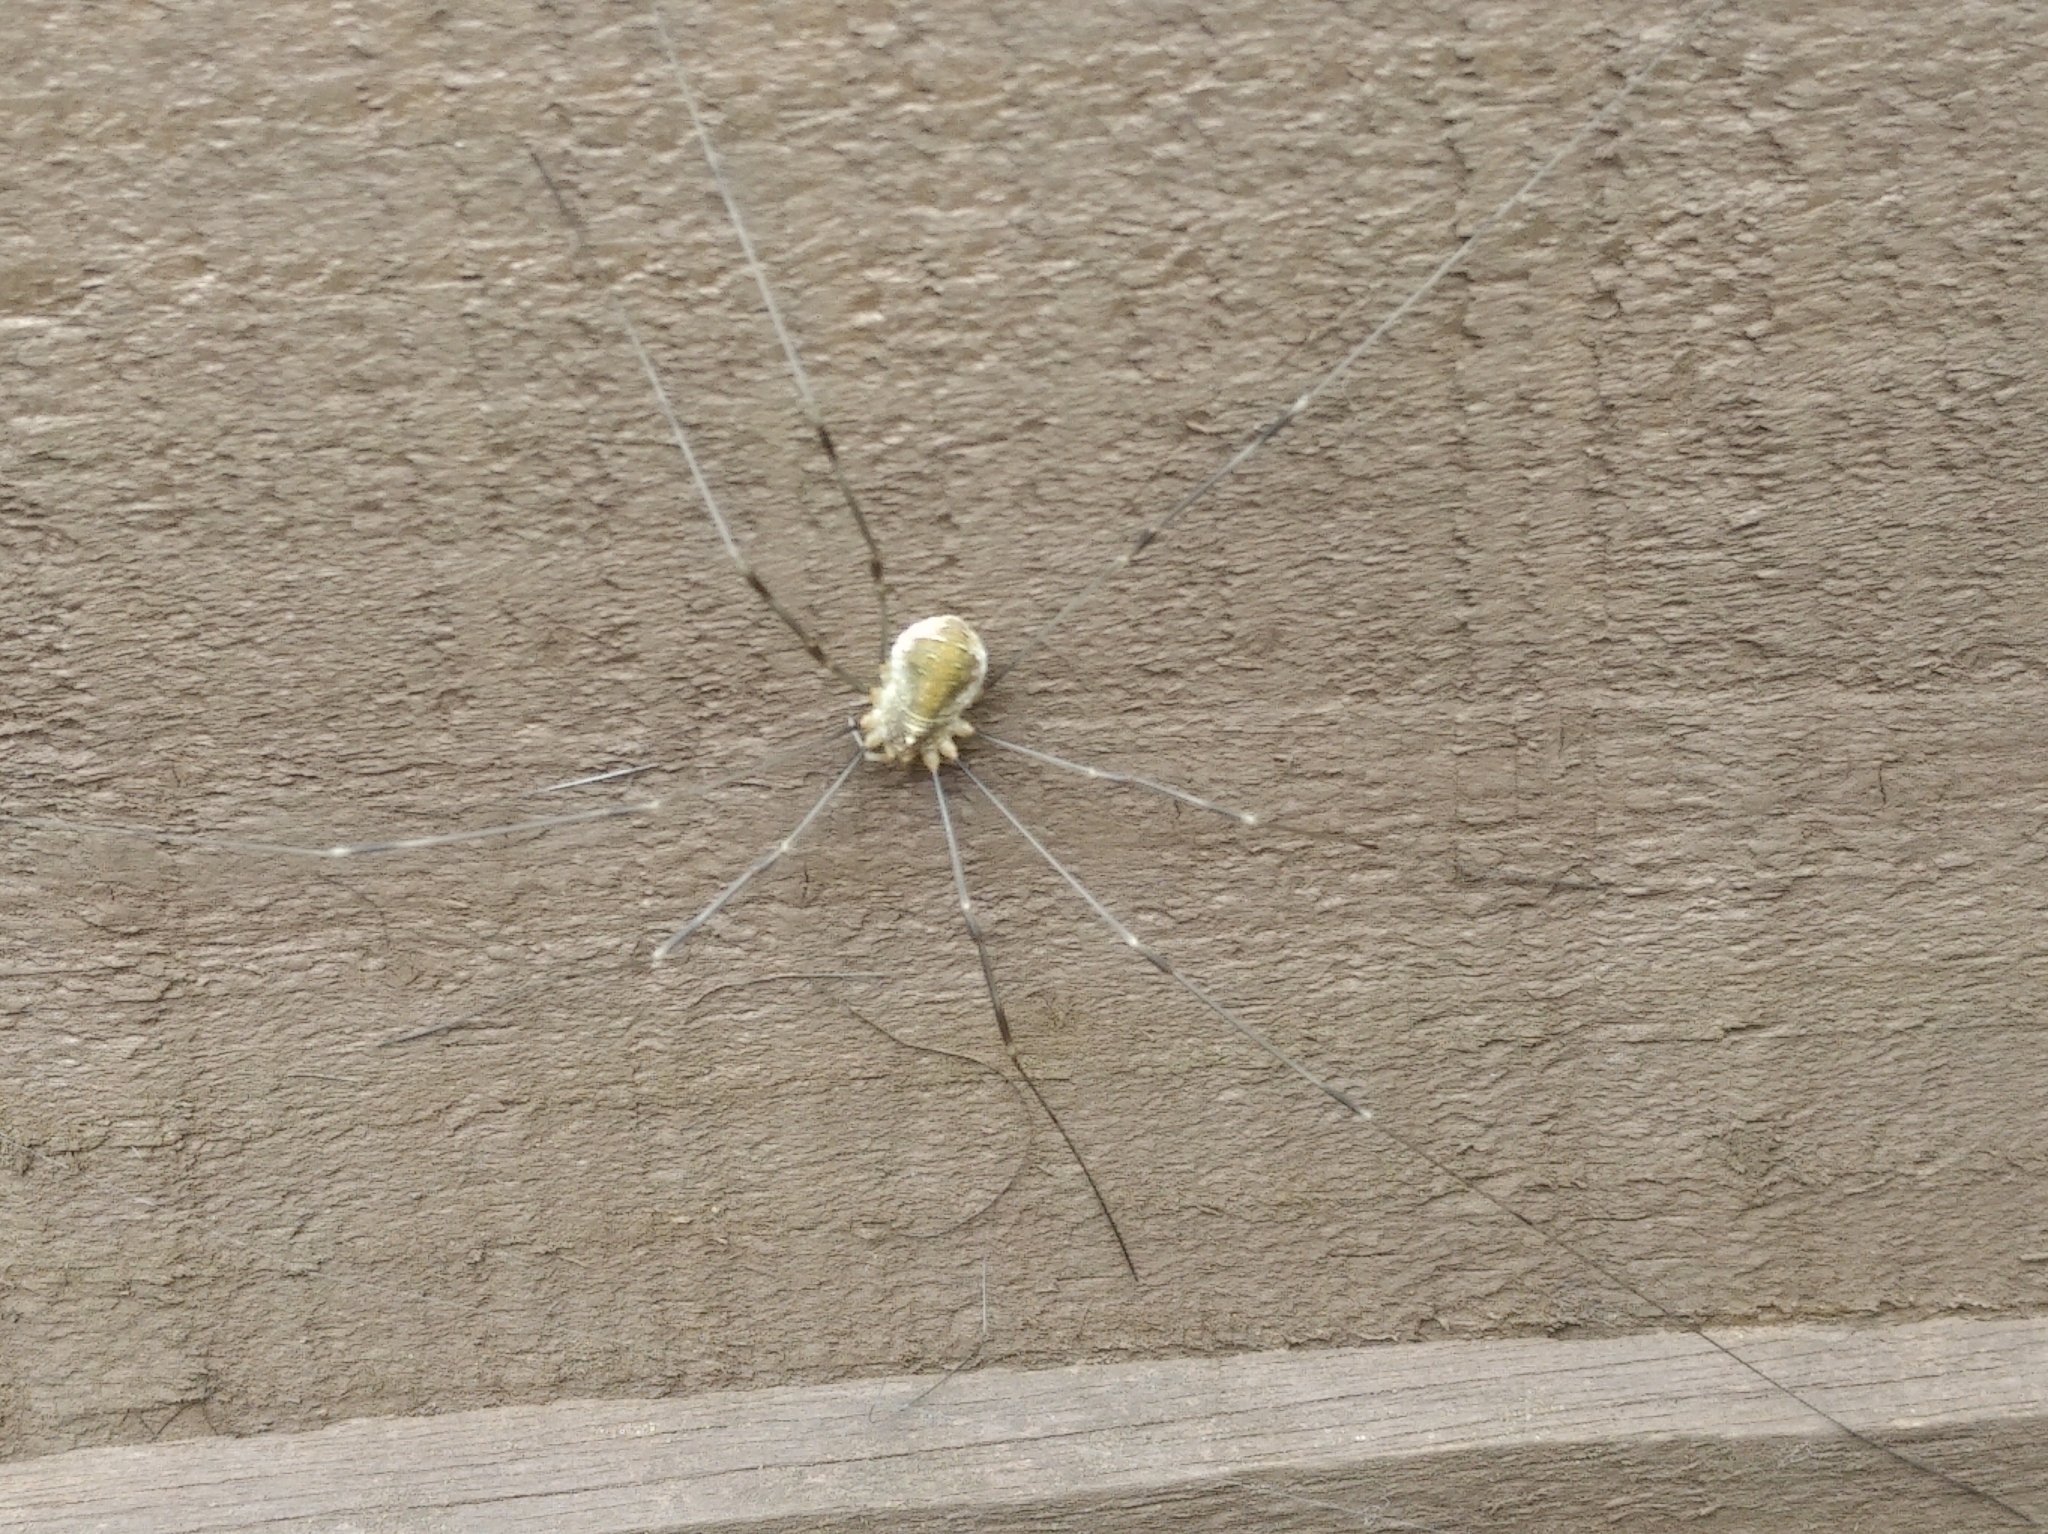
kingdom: Animalia
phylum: Arthropoda
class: Arachnida
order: Opiliones
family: Phalangiidae
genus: Opilio
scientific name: Opilio canestrinii
